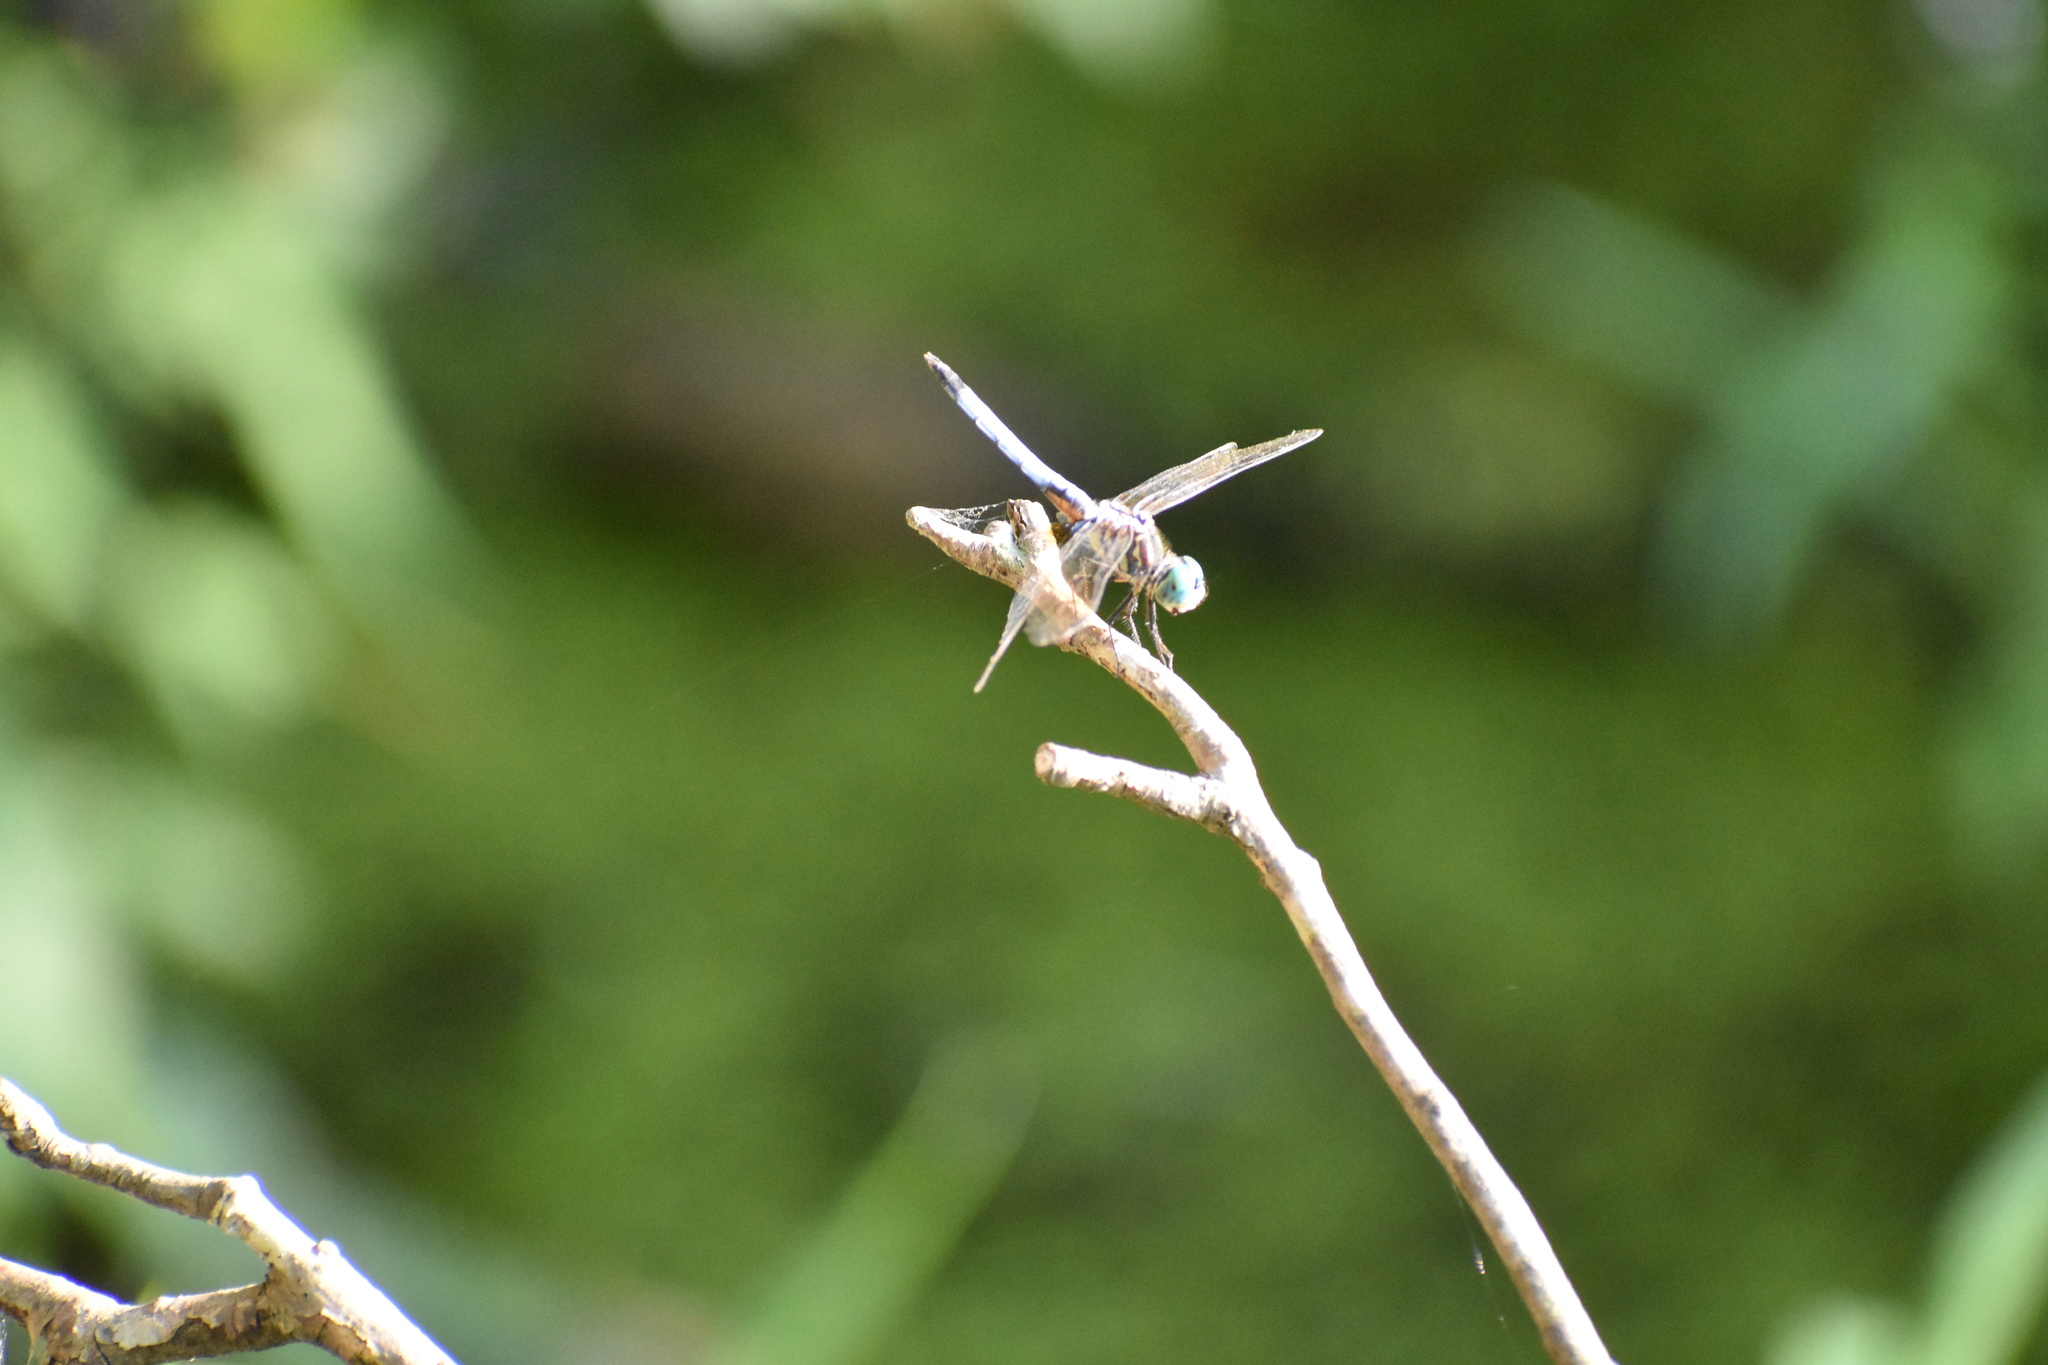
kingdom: Animalia
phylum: Arthropoda
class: Insecta
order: Odonata
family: Libellulidae
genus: Pachydiplax
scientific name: Pachydiplax longipennis
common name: Blue dasher
